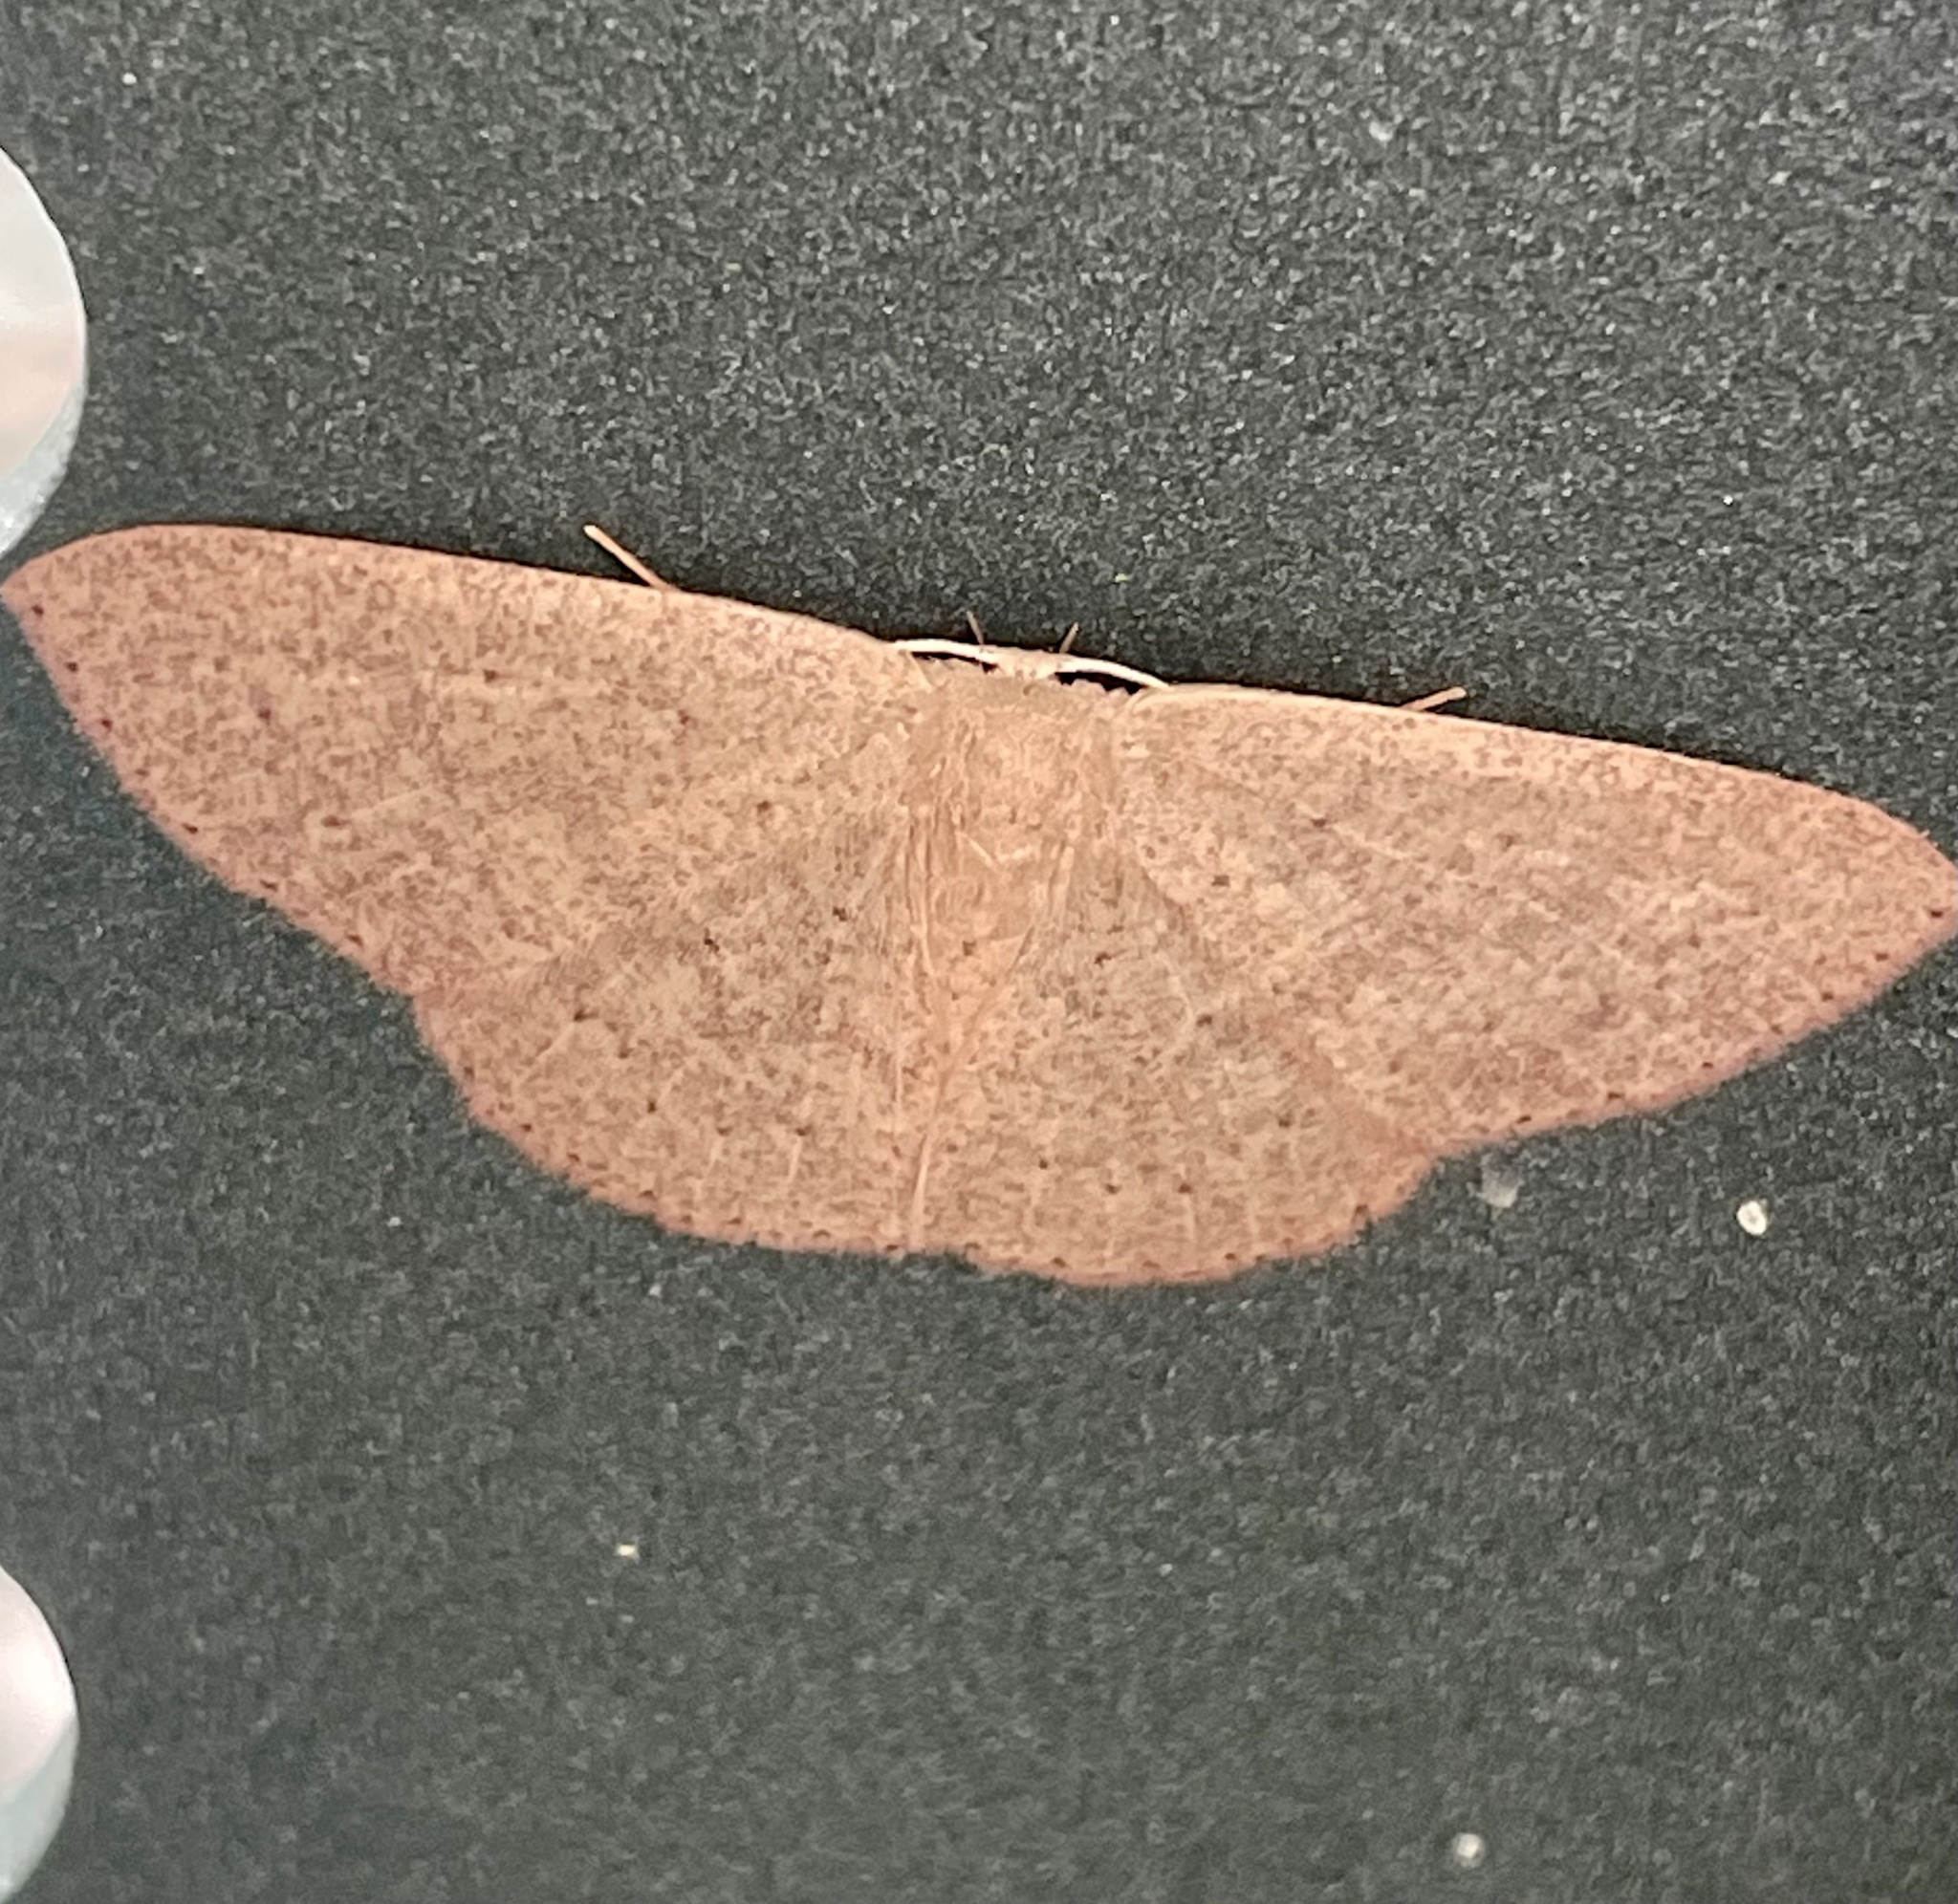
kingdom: Animalia
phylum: Arthropoda
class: Insecta
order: Lepidoptera
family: Geometridae
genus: Cyclophora
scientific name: Cyclophora obstataria
